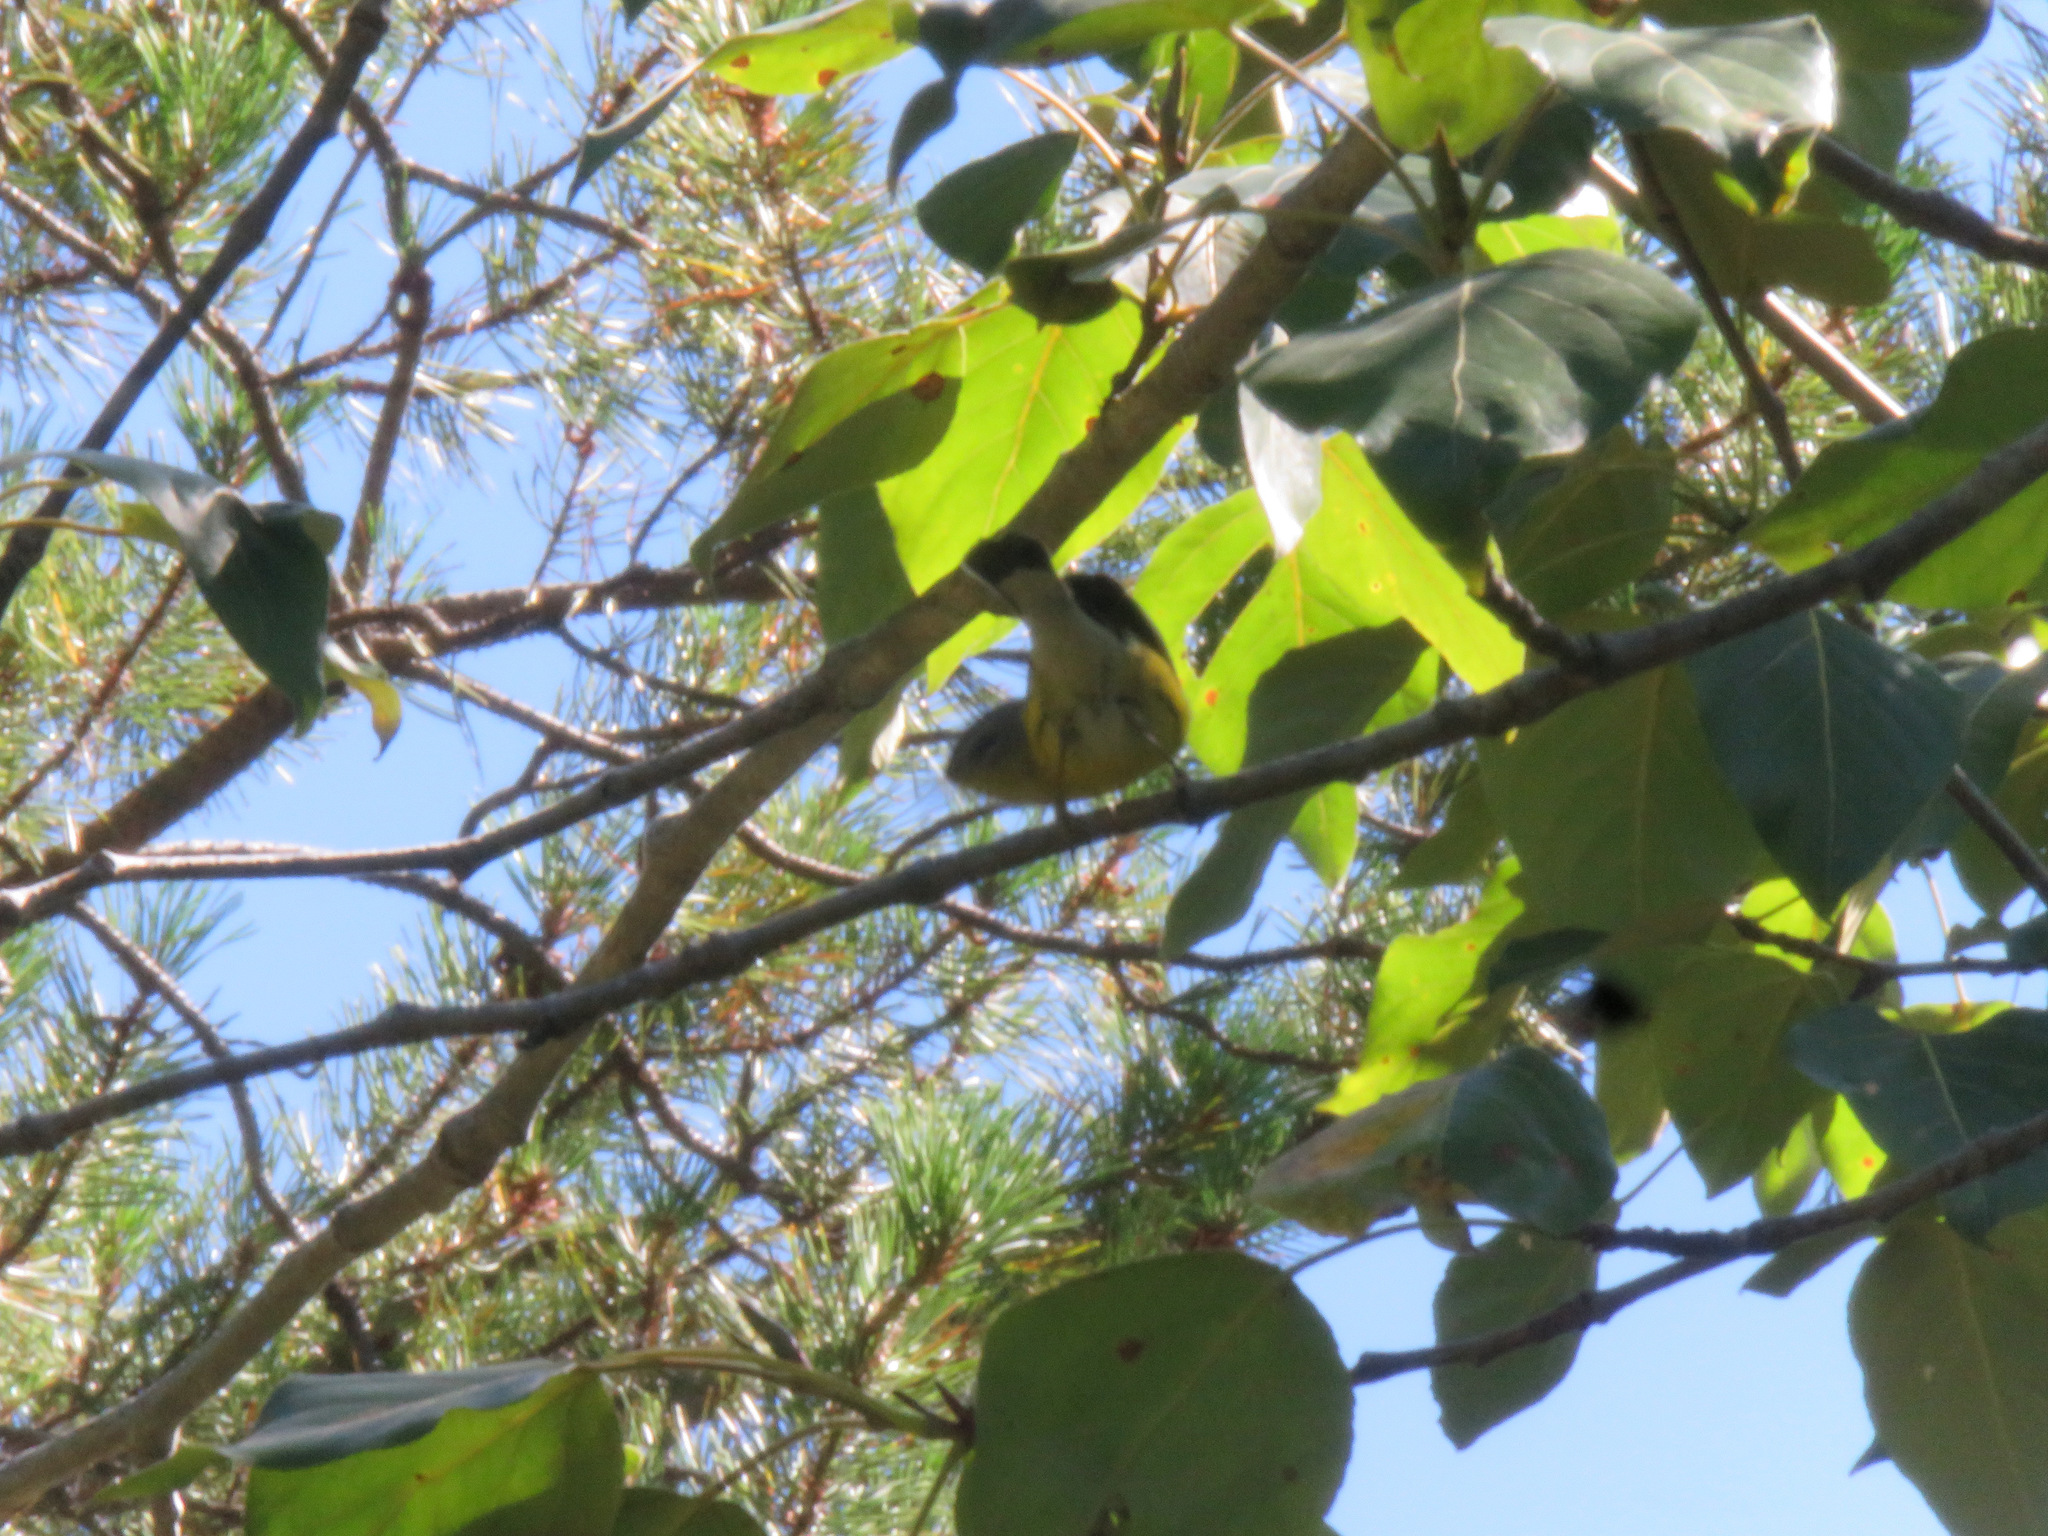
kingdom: Animalia
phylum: Chordata
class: Aves
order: Passeriformes
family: Parulidae
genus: Setophaga
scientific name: Setophaga magnolia
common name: Magnolia warbler
